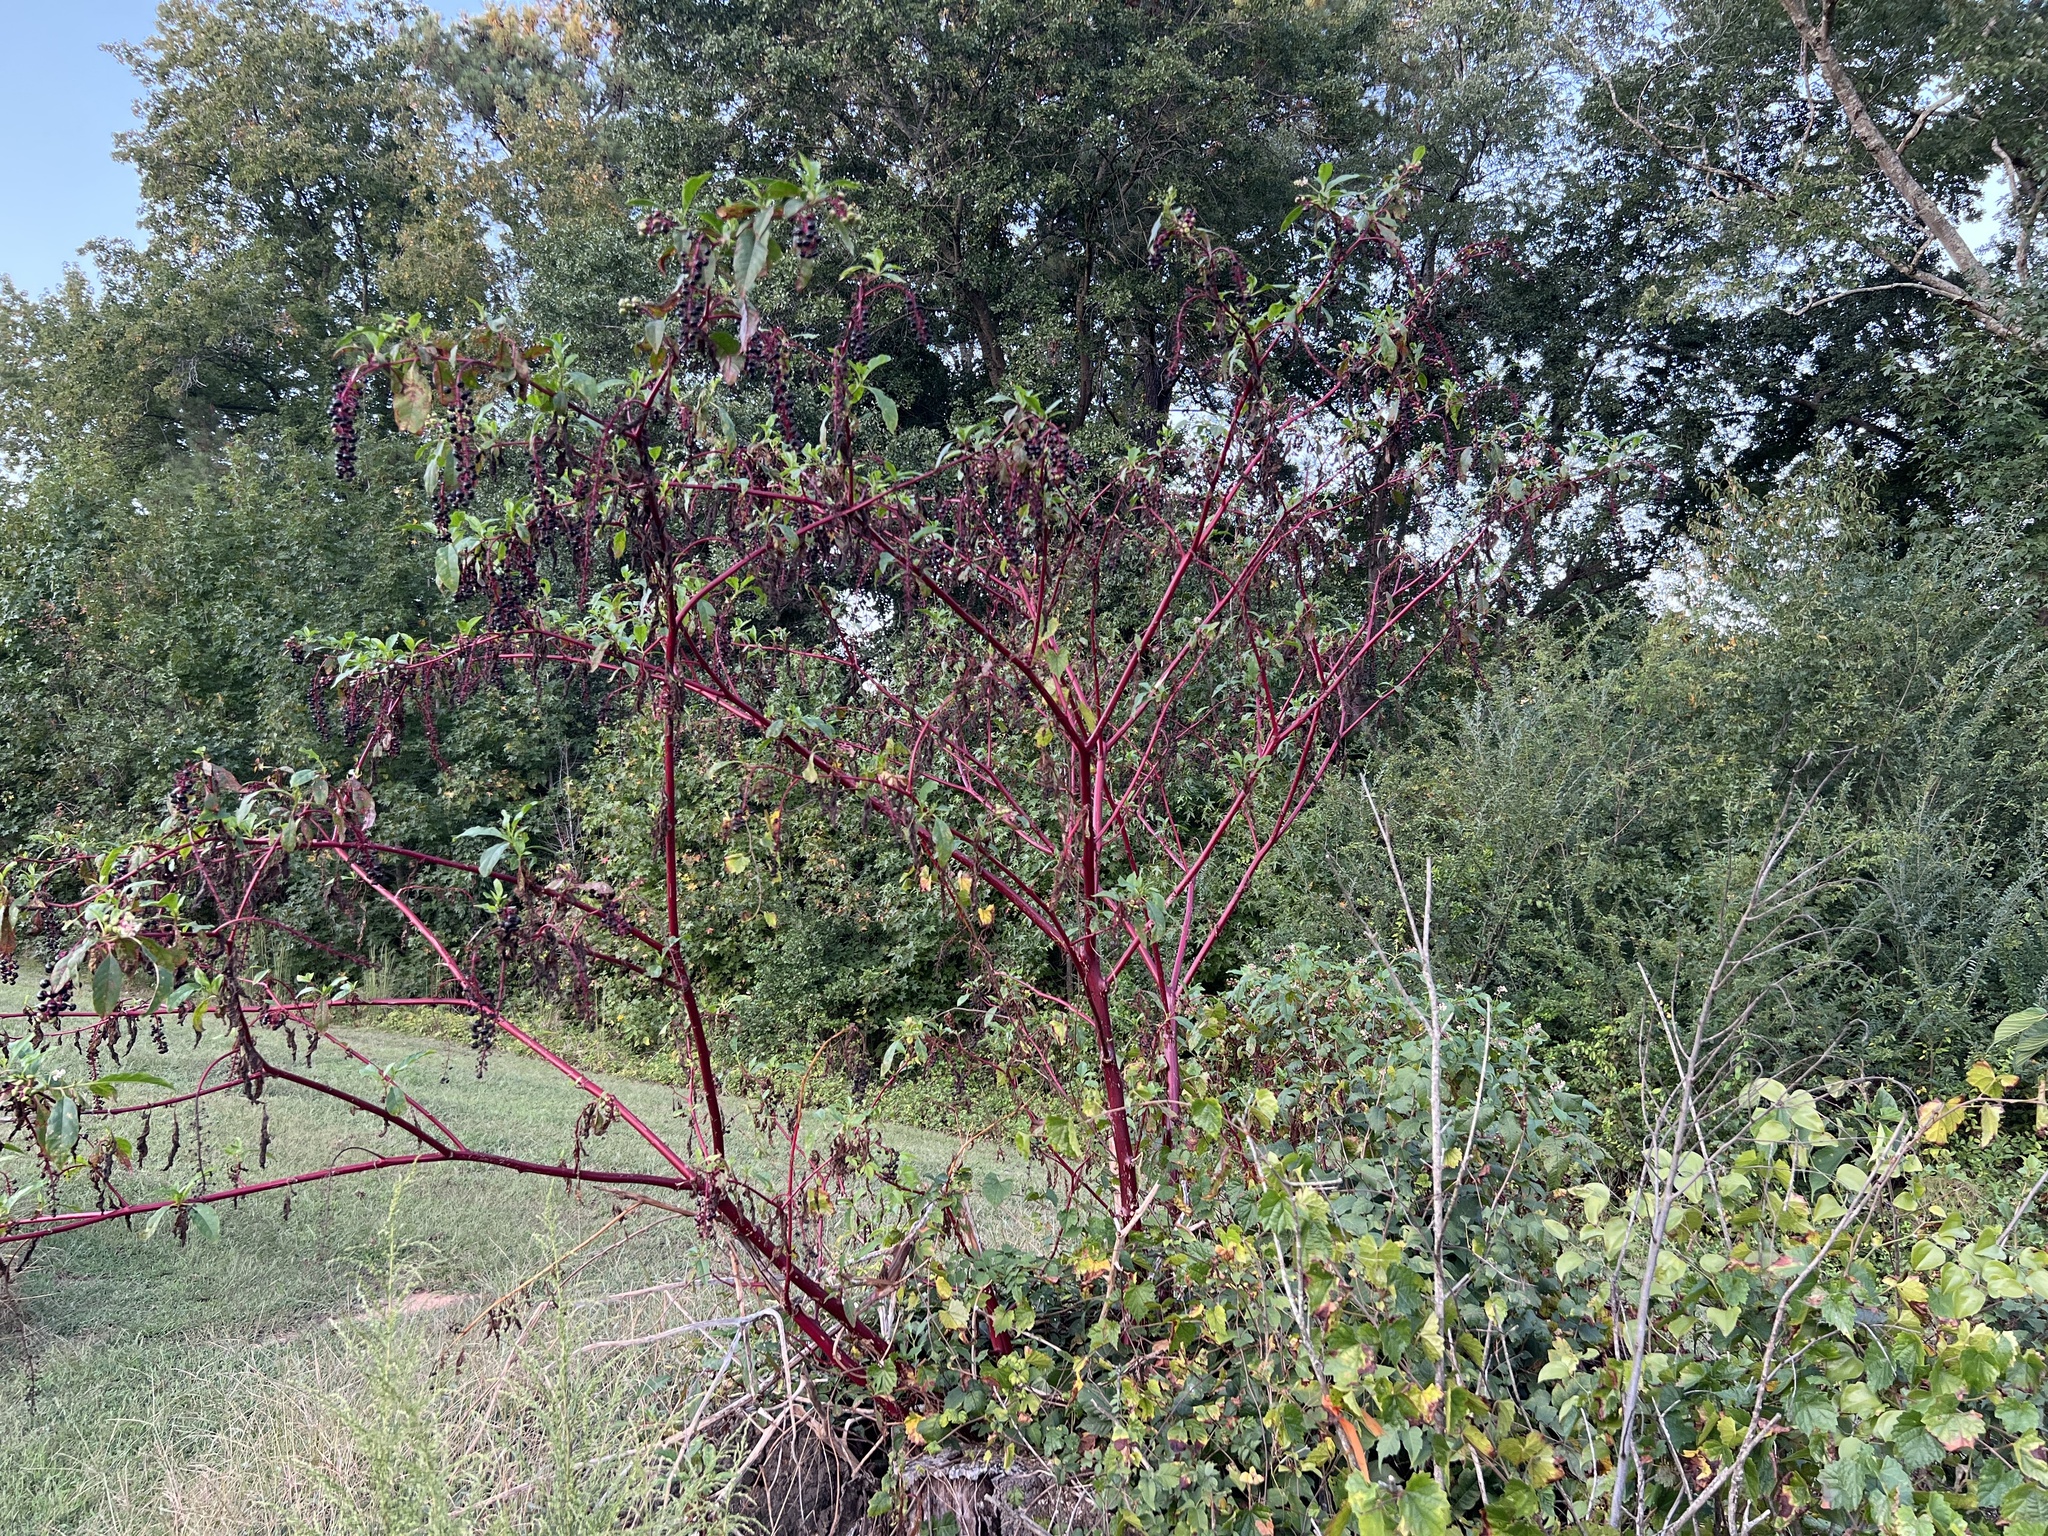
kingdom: Plantae
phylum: Tracheophyta
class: Magnoliopsida
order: Caryophyllales
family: Phytolaccaceae
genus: Phytolacca
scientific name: Phytolacca americana
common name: American pokeweed
